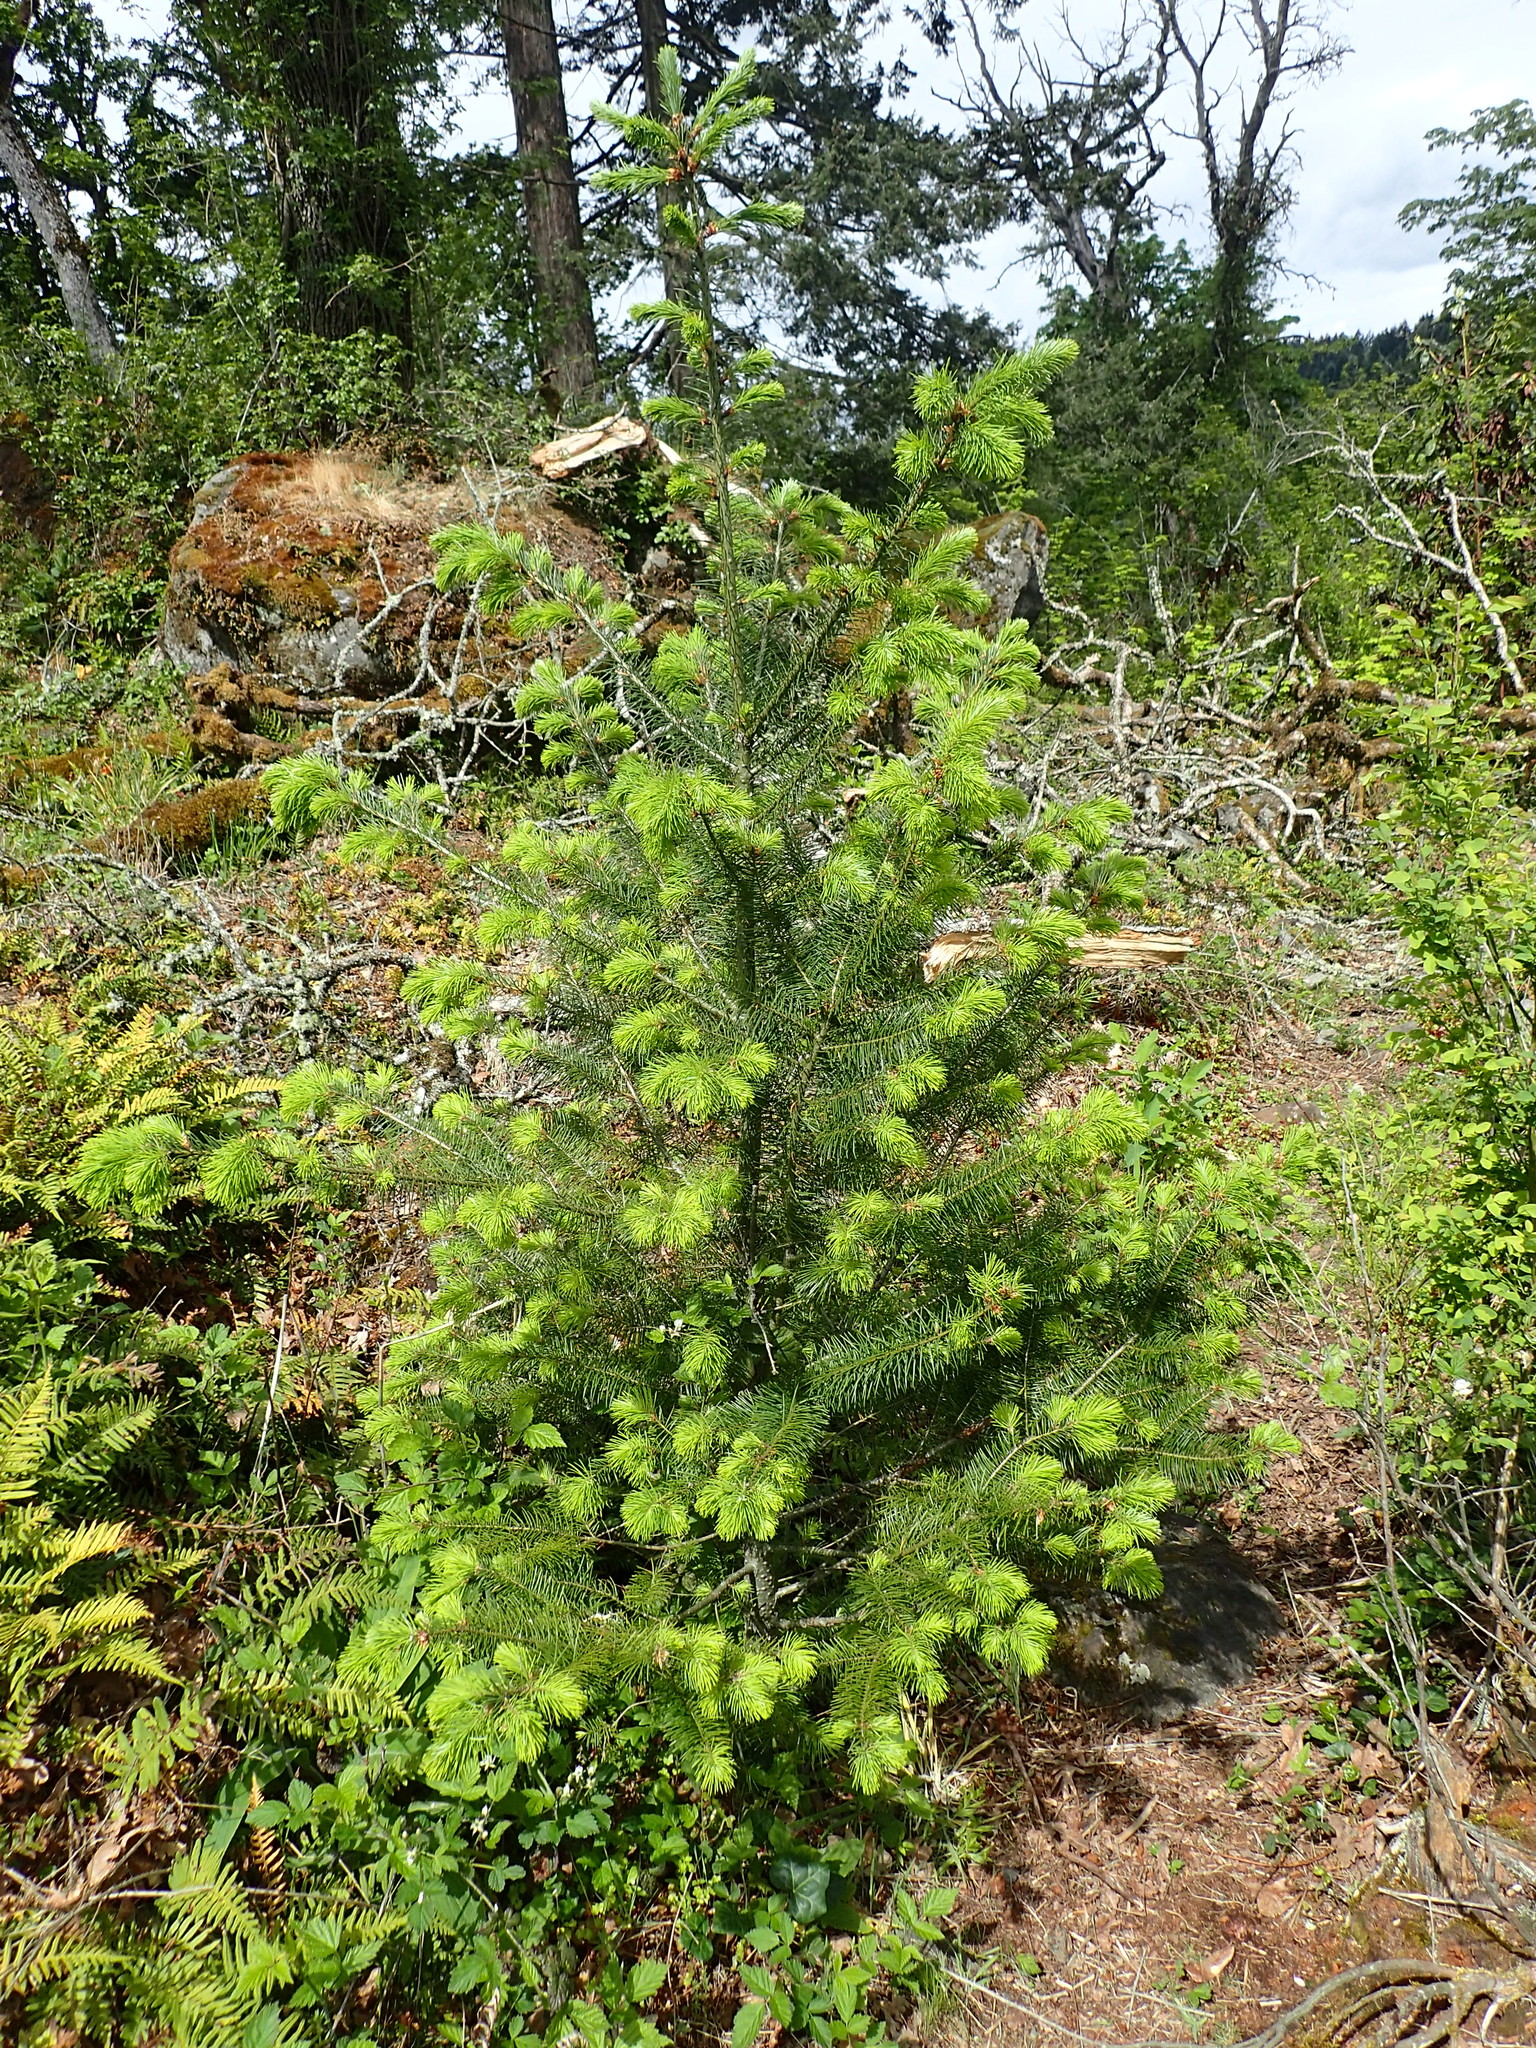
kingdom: Plantae
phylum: Tracheophyta
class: Pinopsida
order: Pinales
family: Pinaceae
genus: Pseudotsuga
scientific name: Pseudotsuga menziesii
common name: Douglas fir
